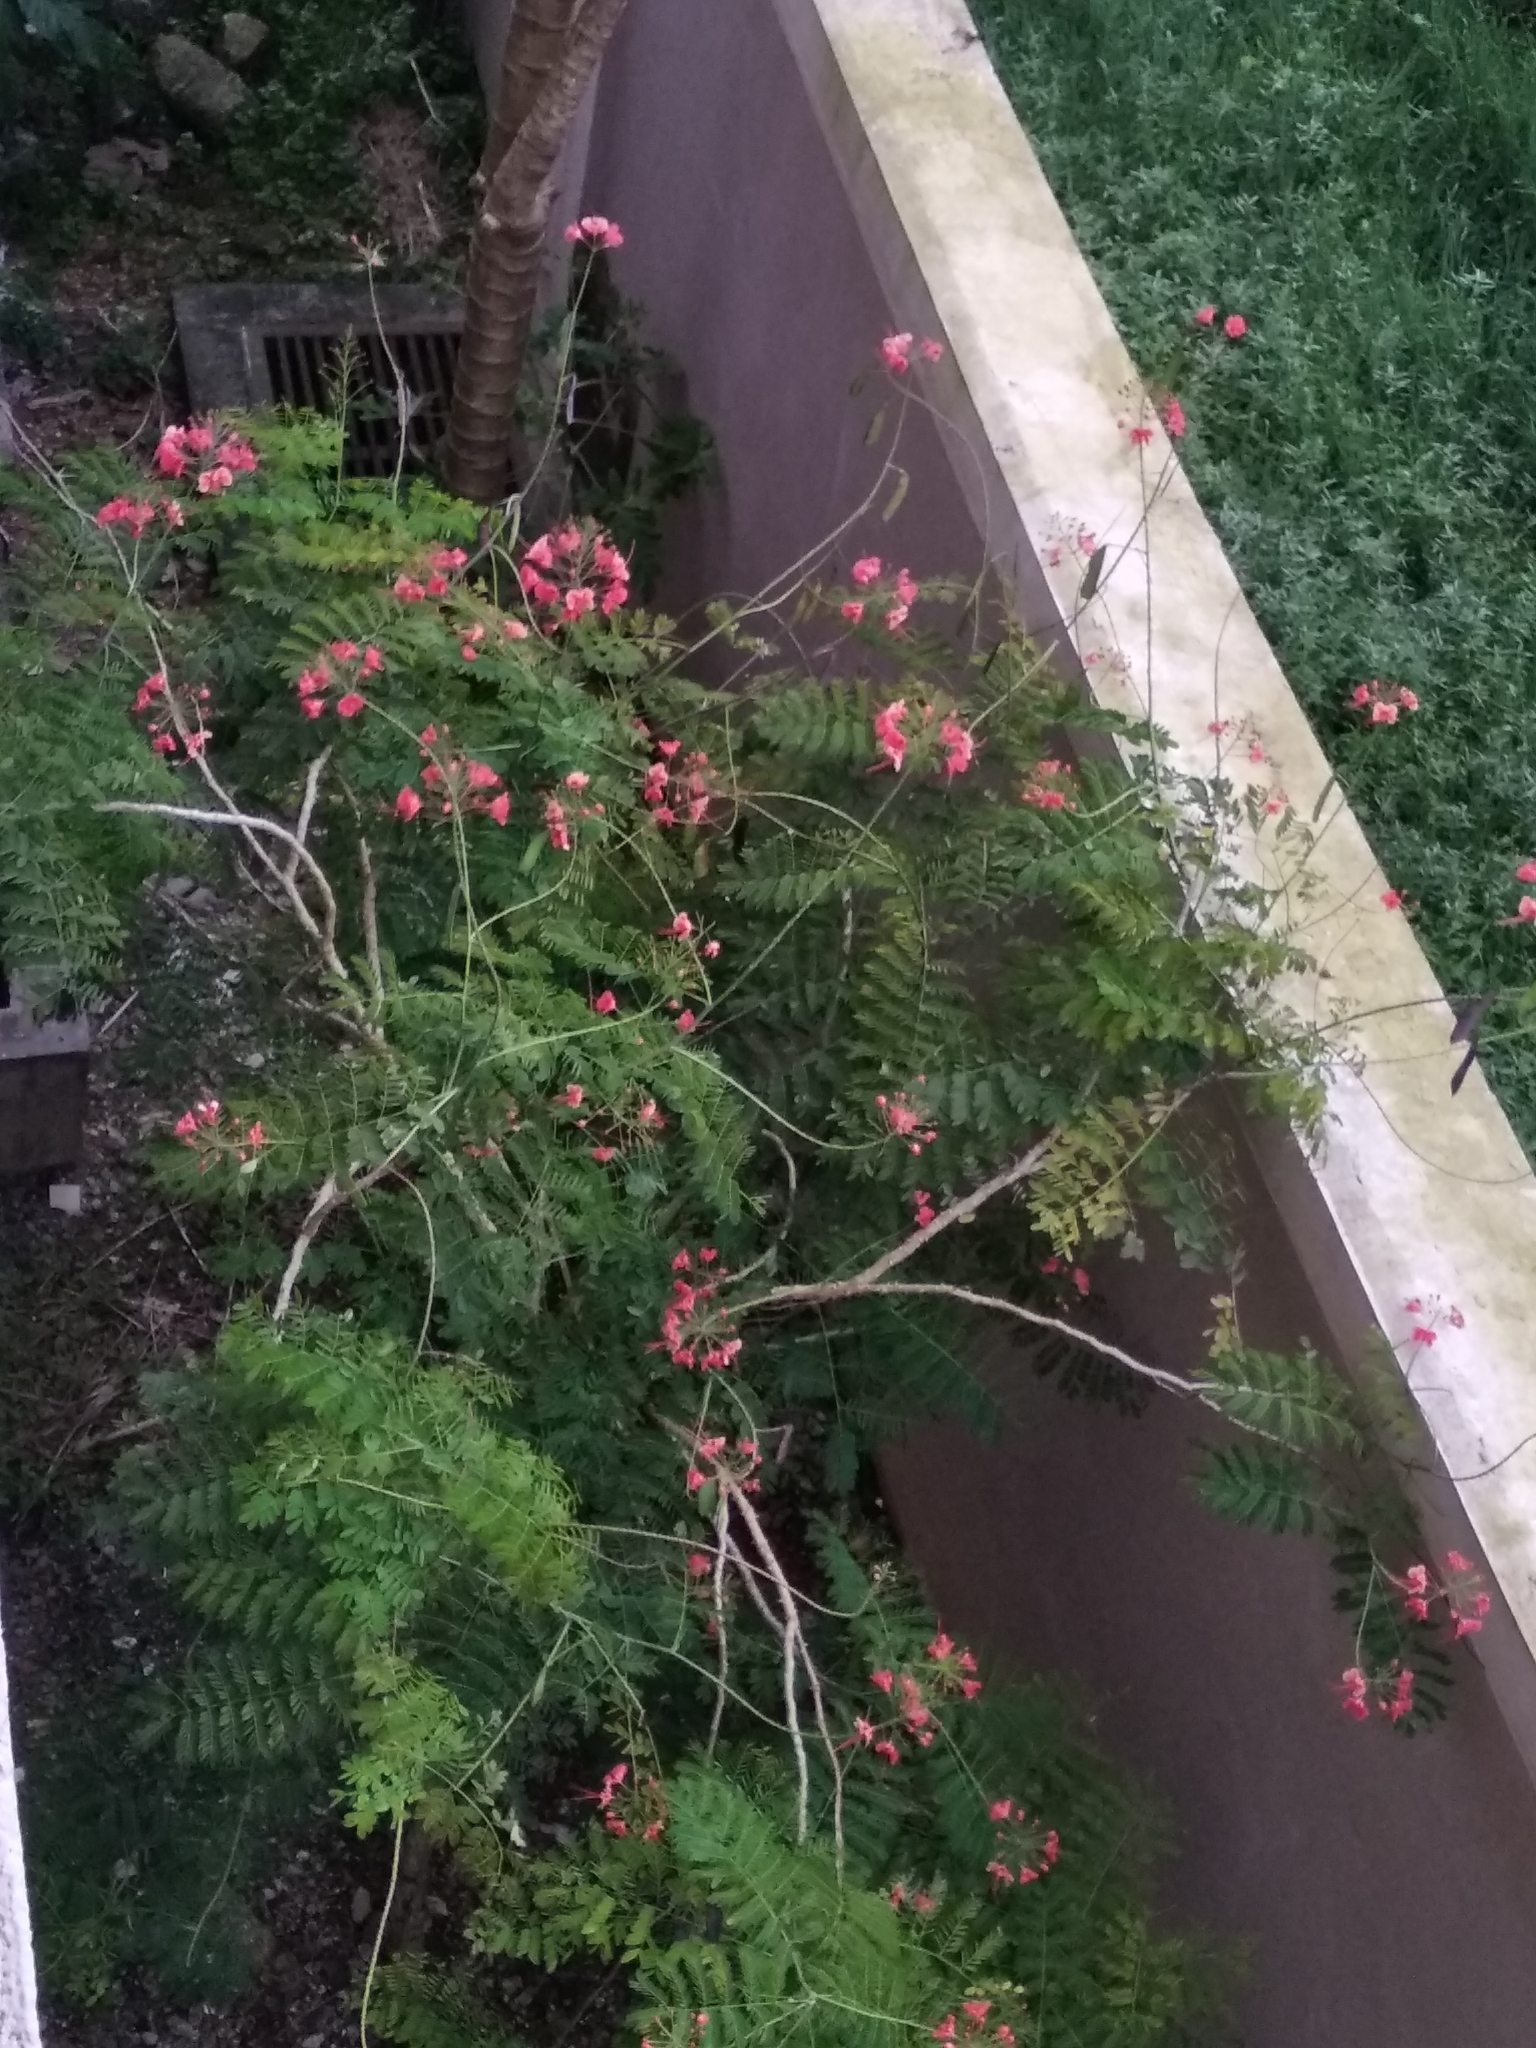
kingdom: Plantae
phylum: Tracheophyta
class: Magnoliopsida
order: Fabales
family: Fabaceae
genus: Caesalpinia
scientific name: Caesalpinia pulcherrima
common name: Pride-of-barbados
